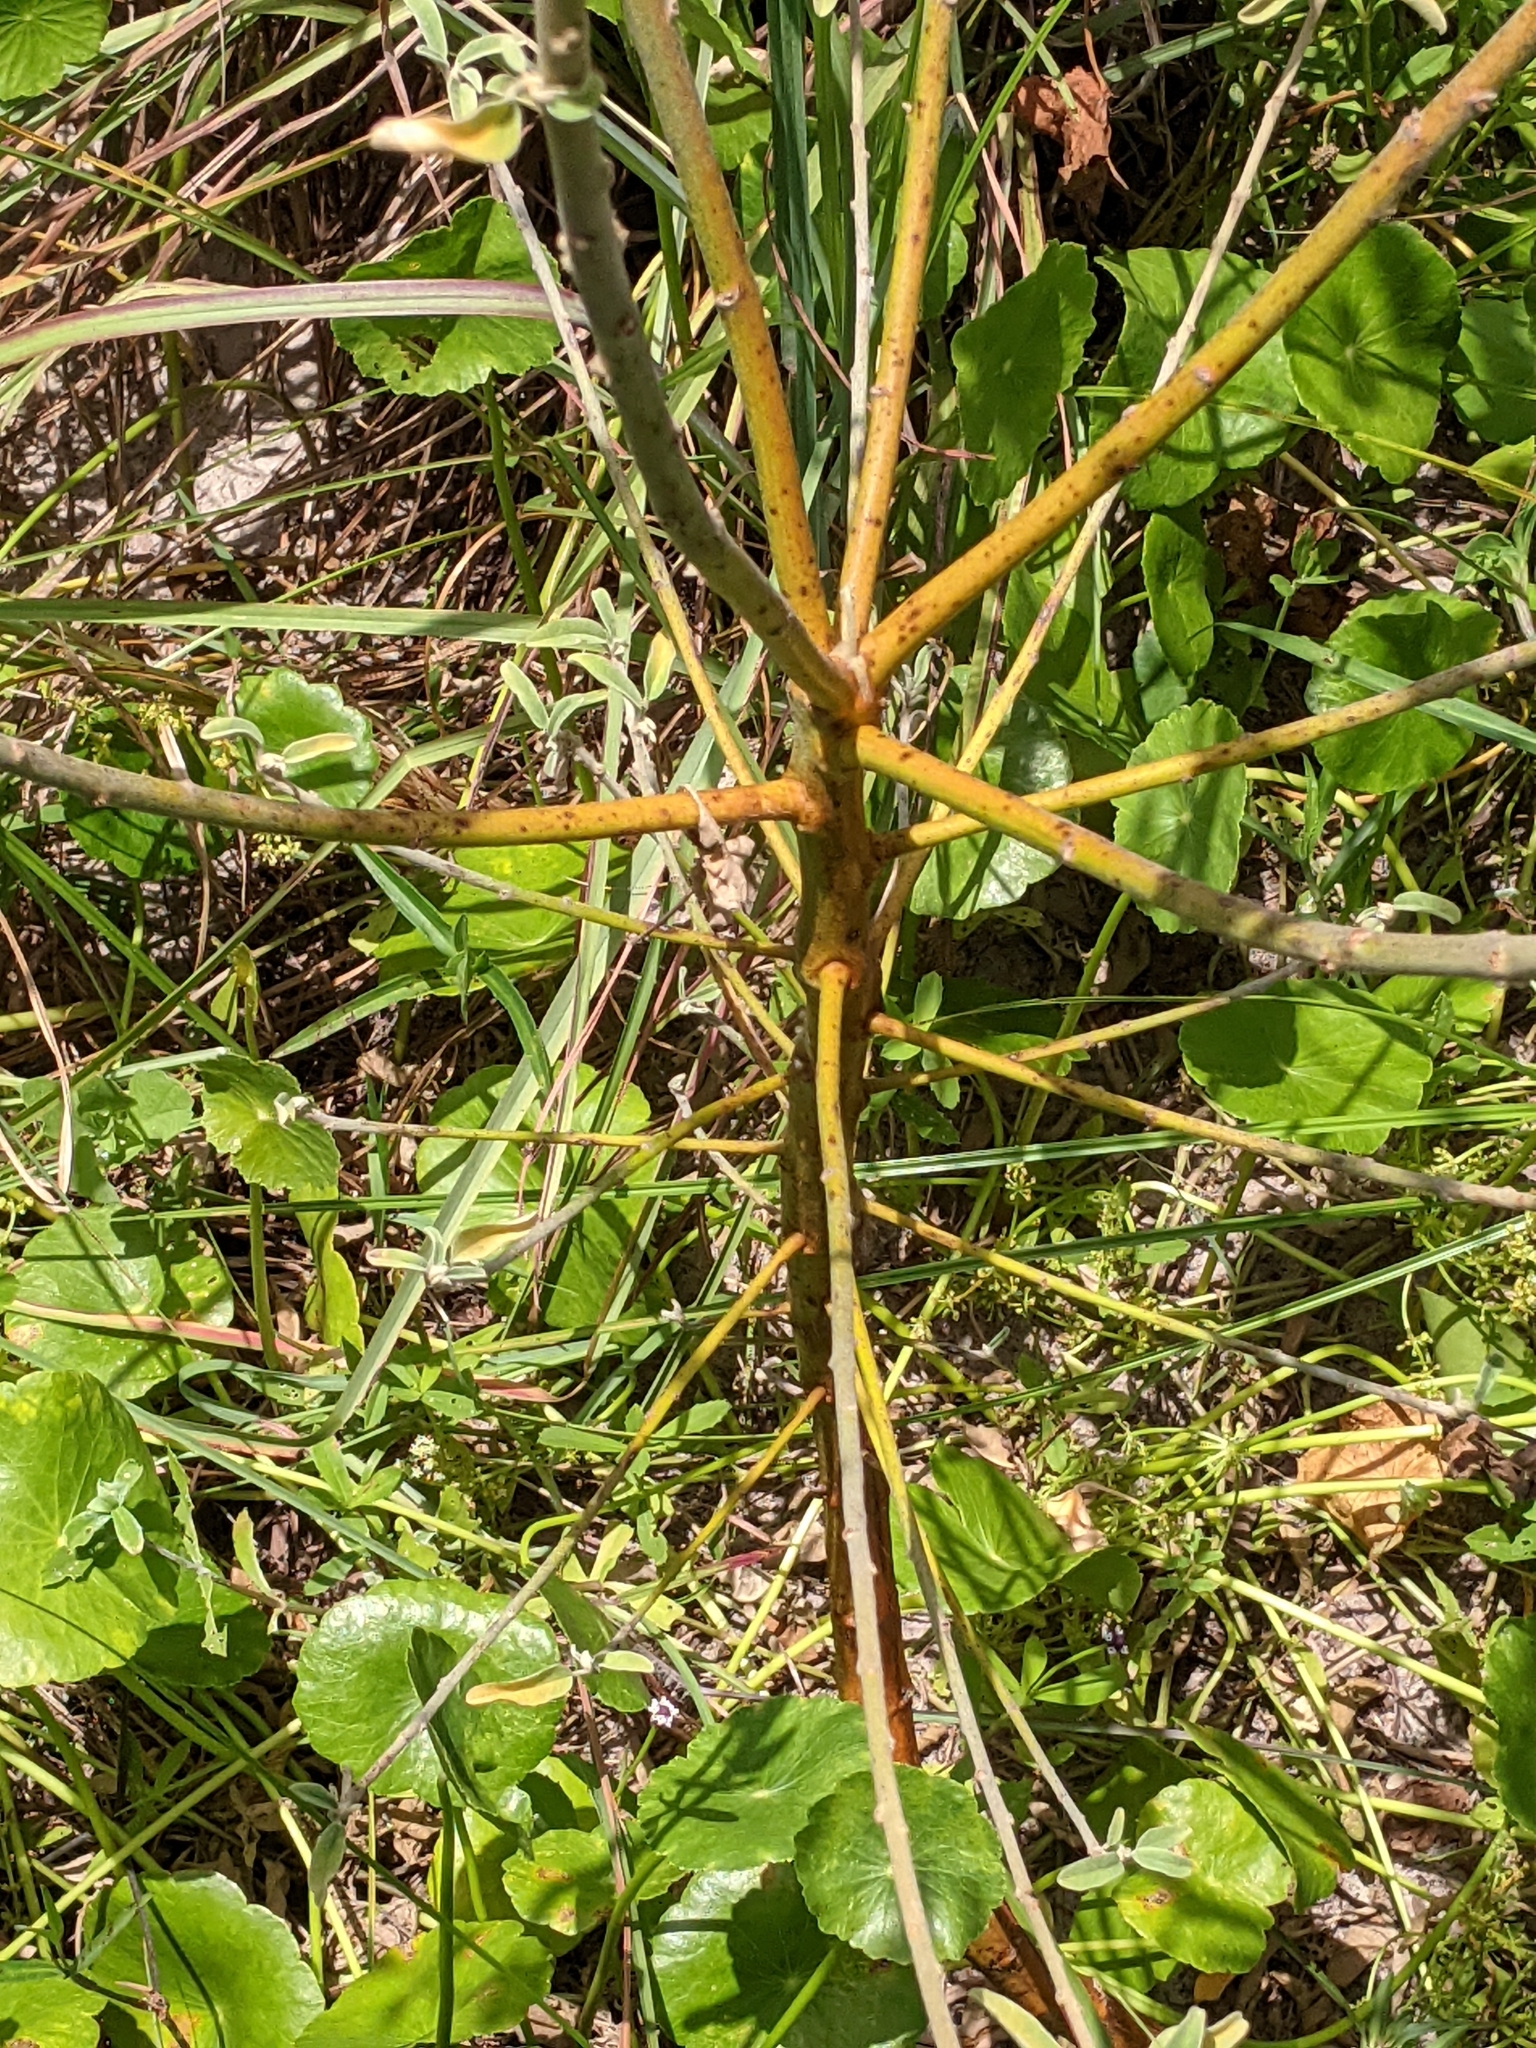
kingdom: Plantae
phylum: Tracheophyta
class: Magnoliopsida
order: Malpighiales
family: Euphorbiaceae
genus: Croton
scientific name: Croton parksii
